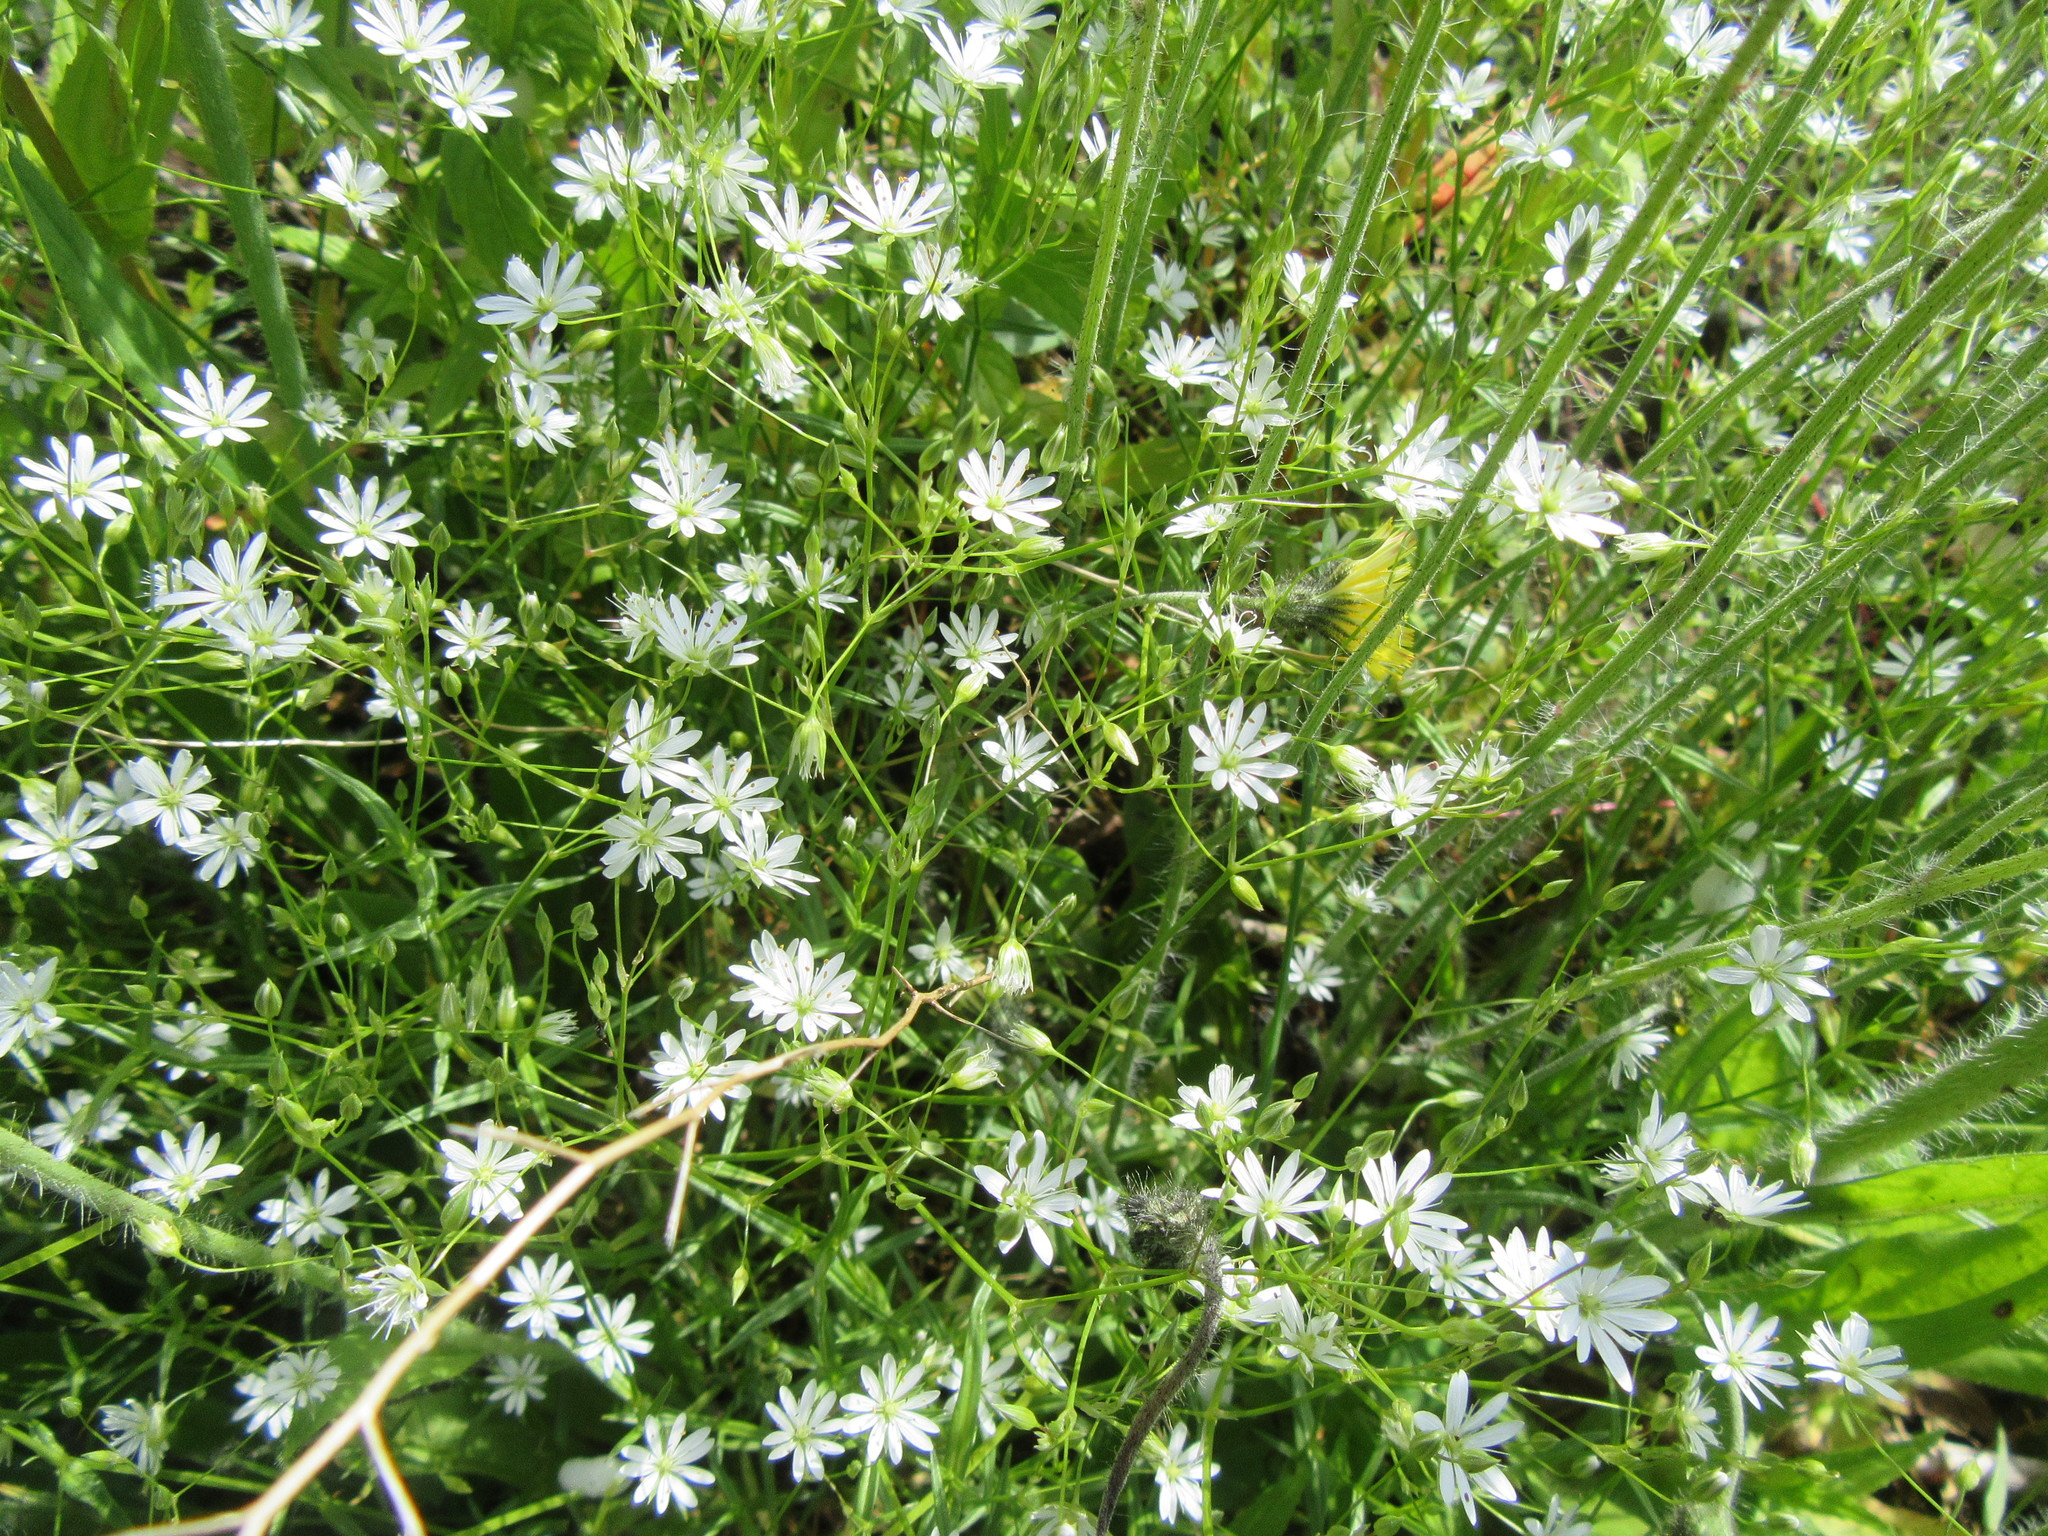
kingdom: Plantae
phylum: Tracheophyta
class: Magnoliopsida
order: Caryophyllales
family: Caryophyllaceae
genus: Stellaria
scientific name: Stellaria graminea
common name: Grass-like starwort
